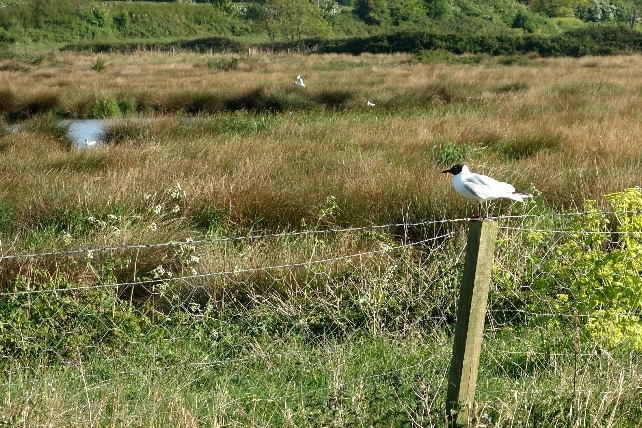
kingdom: Animalia
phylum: Chordata
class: Aves
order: Charadriiformes
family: Laridae
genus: Chroicocephalus
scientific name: Chroicocephalus ridibundus
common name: Black-headed gull
